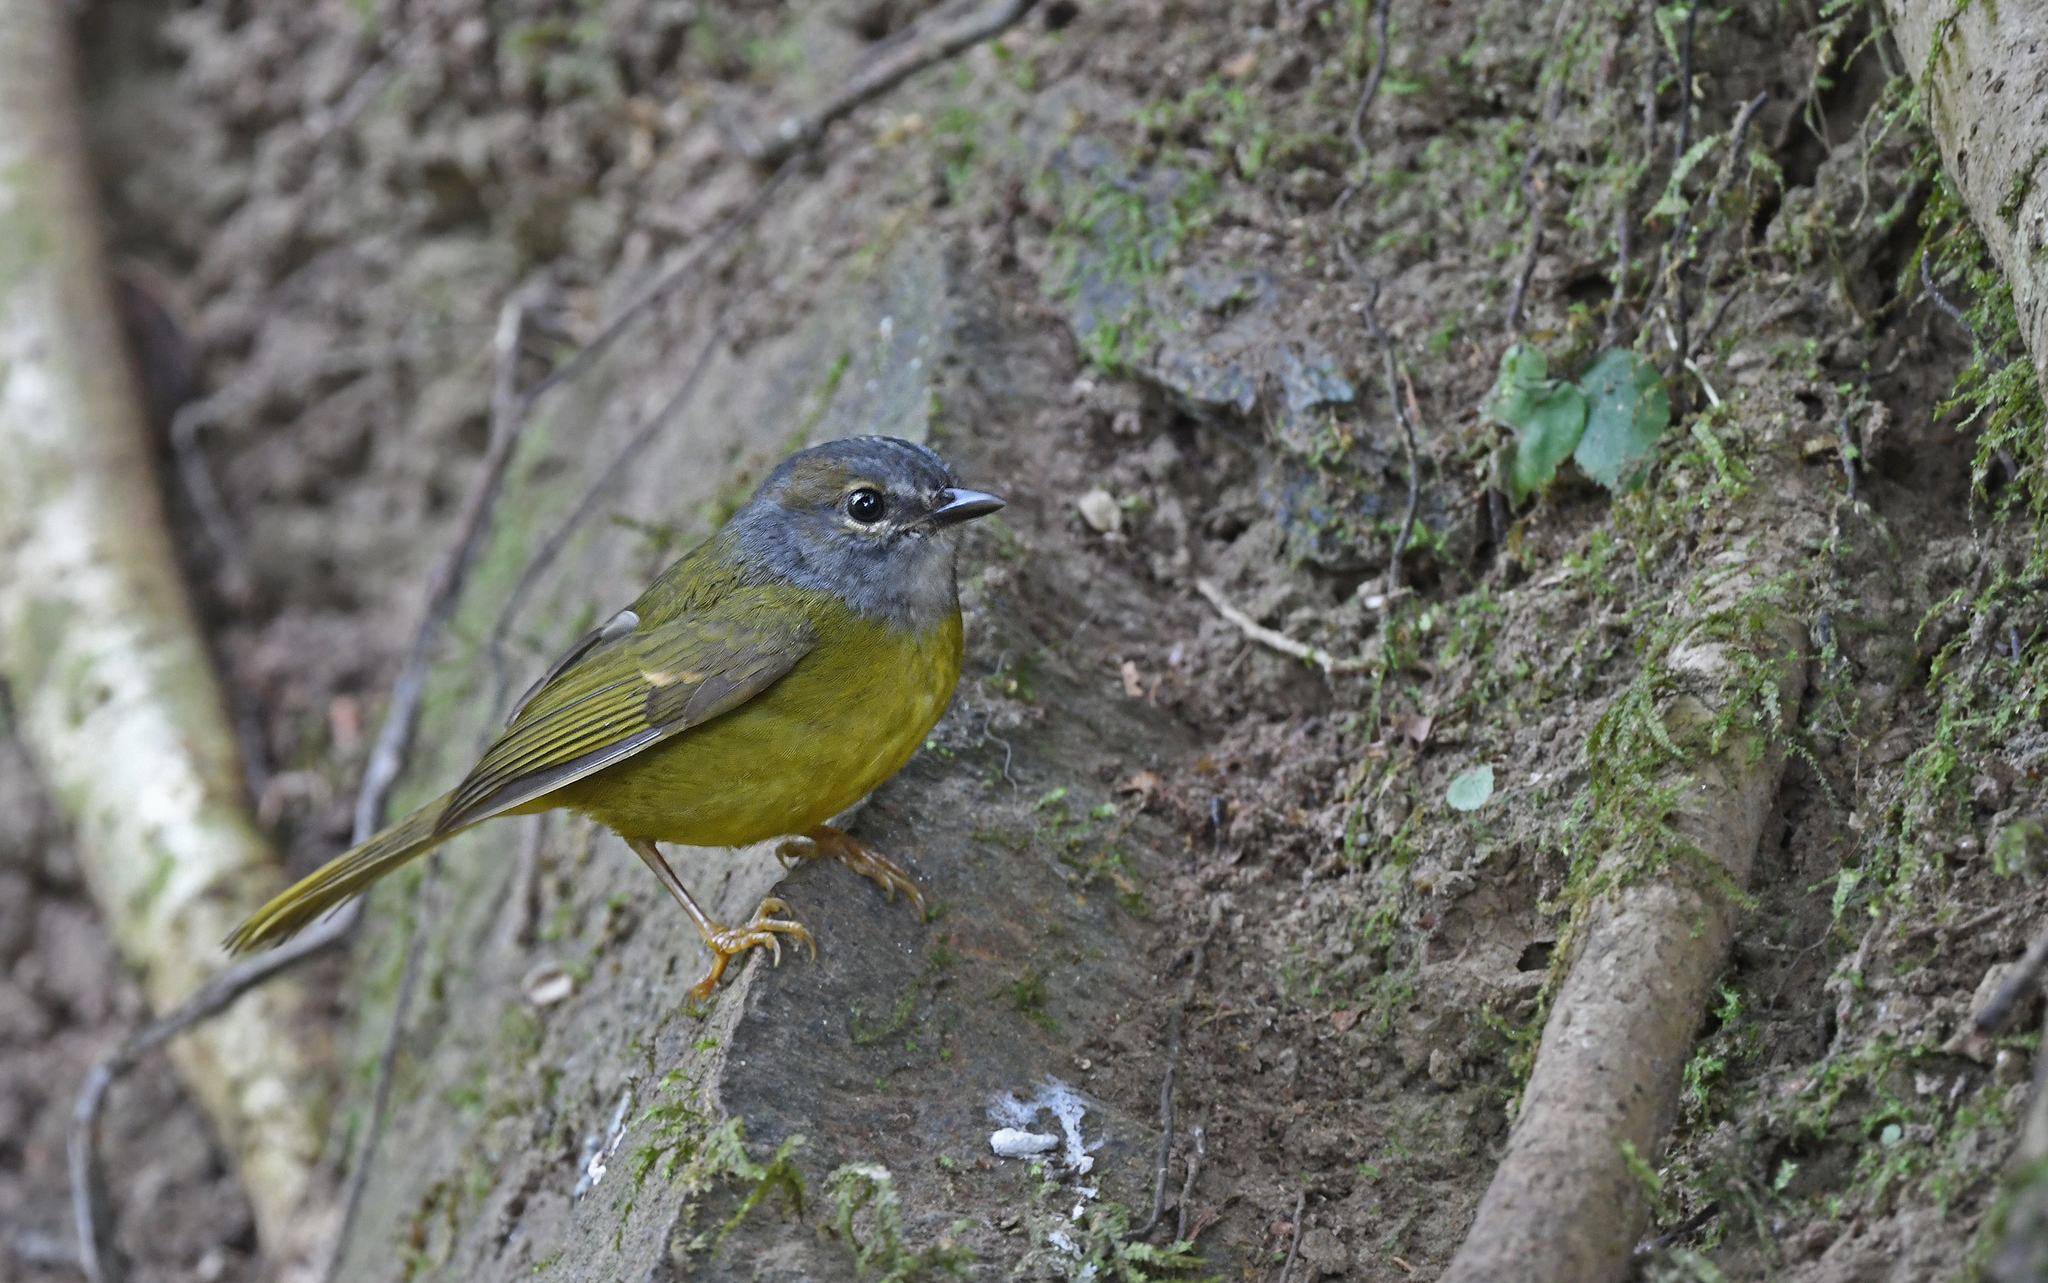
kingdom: Animalia
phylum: Chordata
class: Aves
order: Passeriformes
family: Parulidae
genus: Myiothlypis
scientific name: Myiothlypis conspicillata
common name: White-lored warbler
